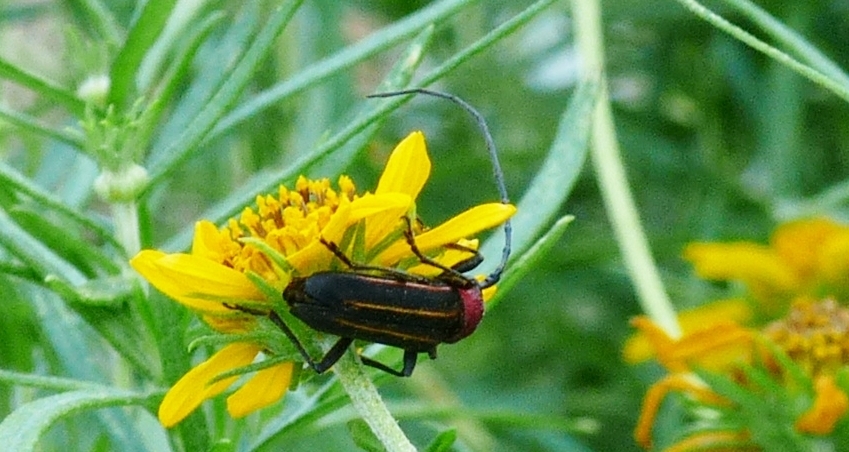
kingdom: Animalia
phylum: Arthropoda
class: Insecta
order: Coleoptera
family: Cerambycidae
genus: Mannophorus
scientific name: Mannophorus laetus
